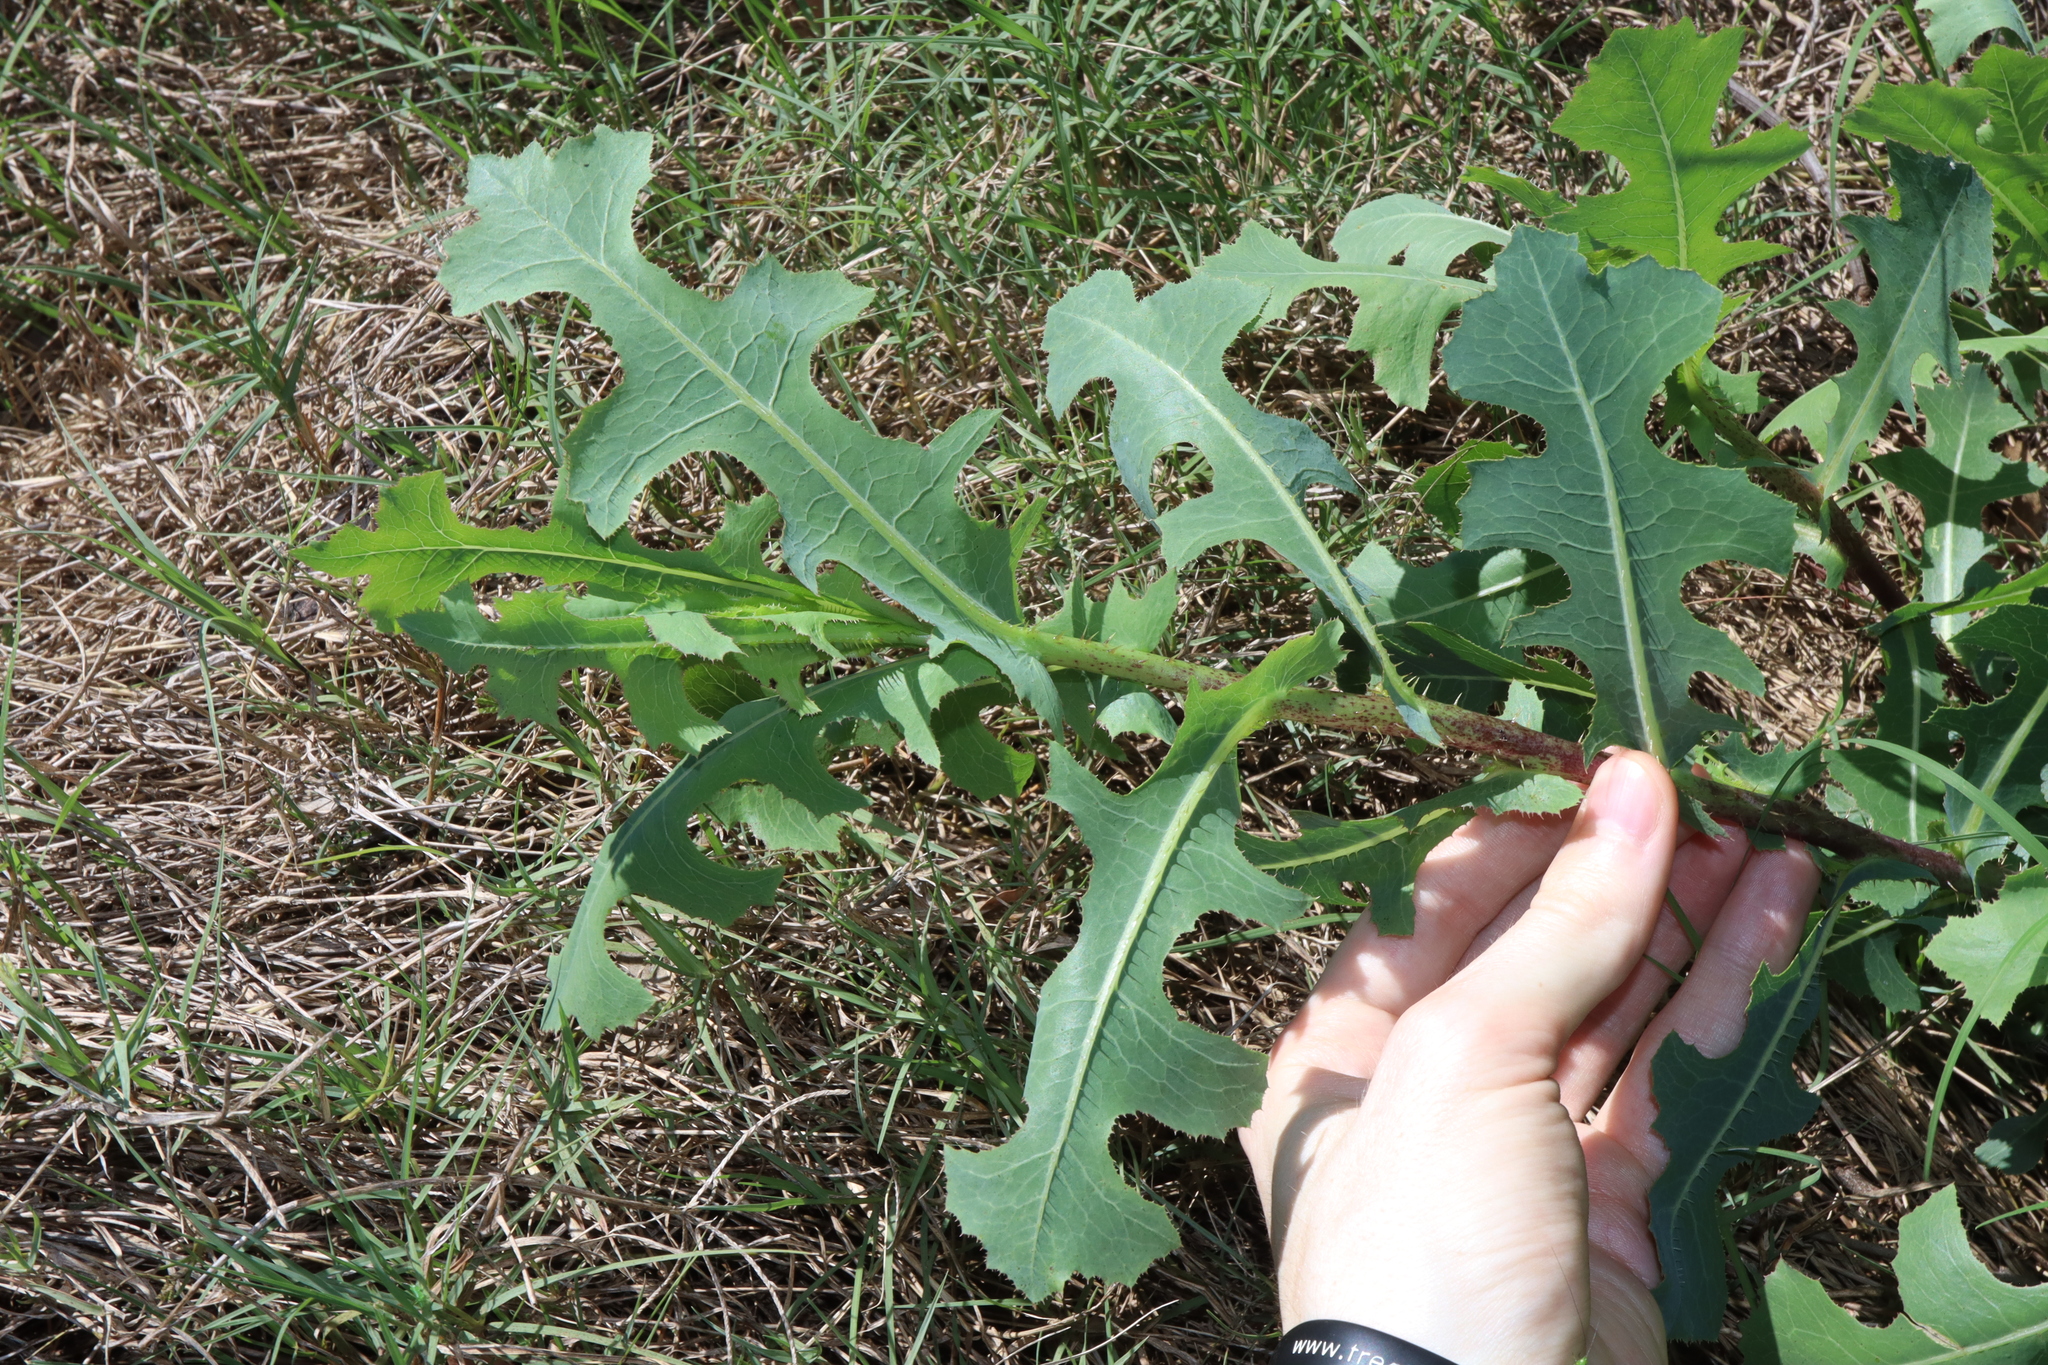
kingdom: Plantae
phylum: Tracheophyta
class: Magnoliopsida
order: Asterales
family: Asteraceae
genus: Lactuca
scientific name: Lactuca serriola
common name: Prickly lettuce
